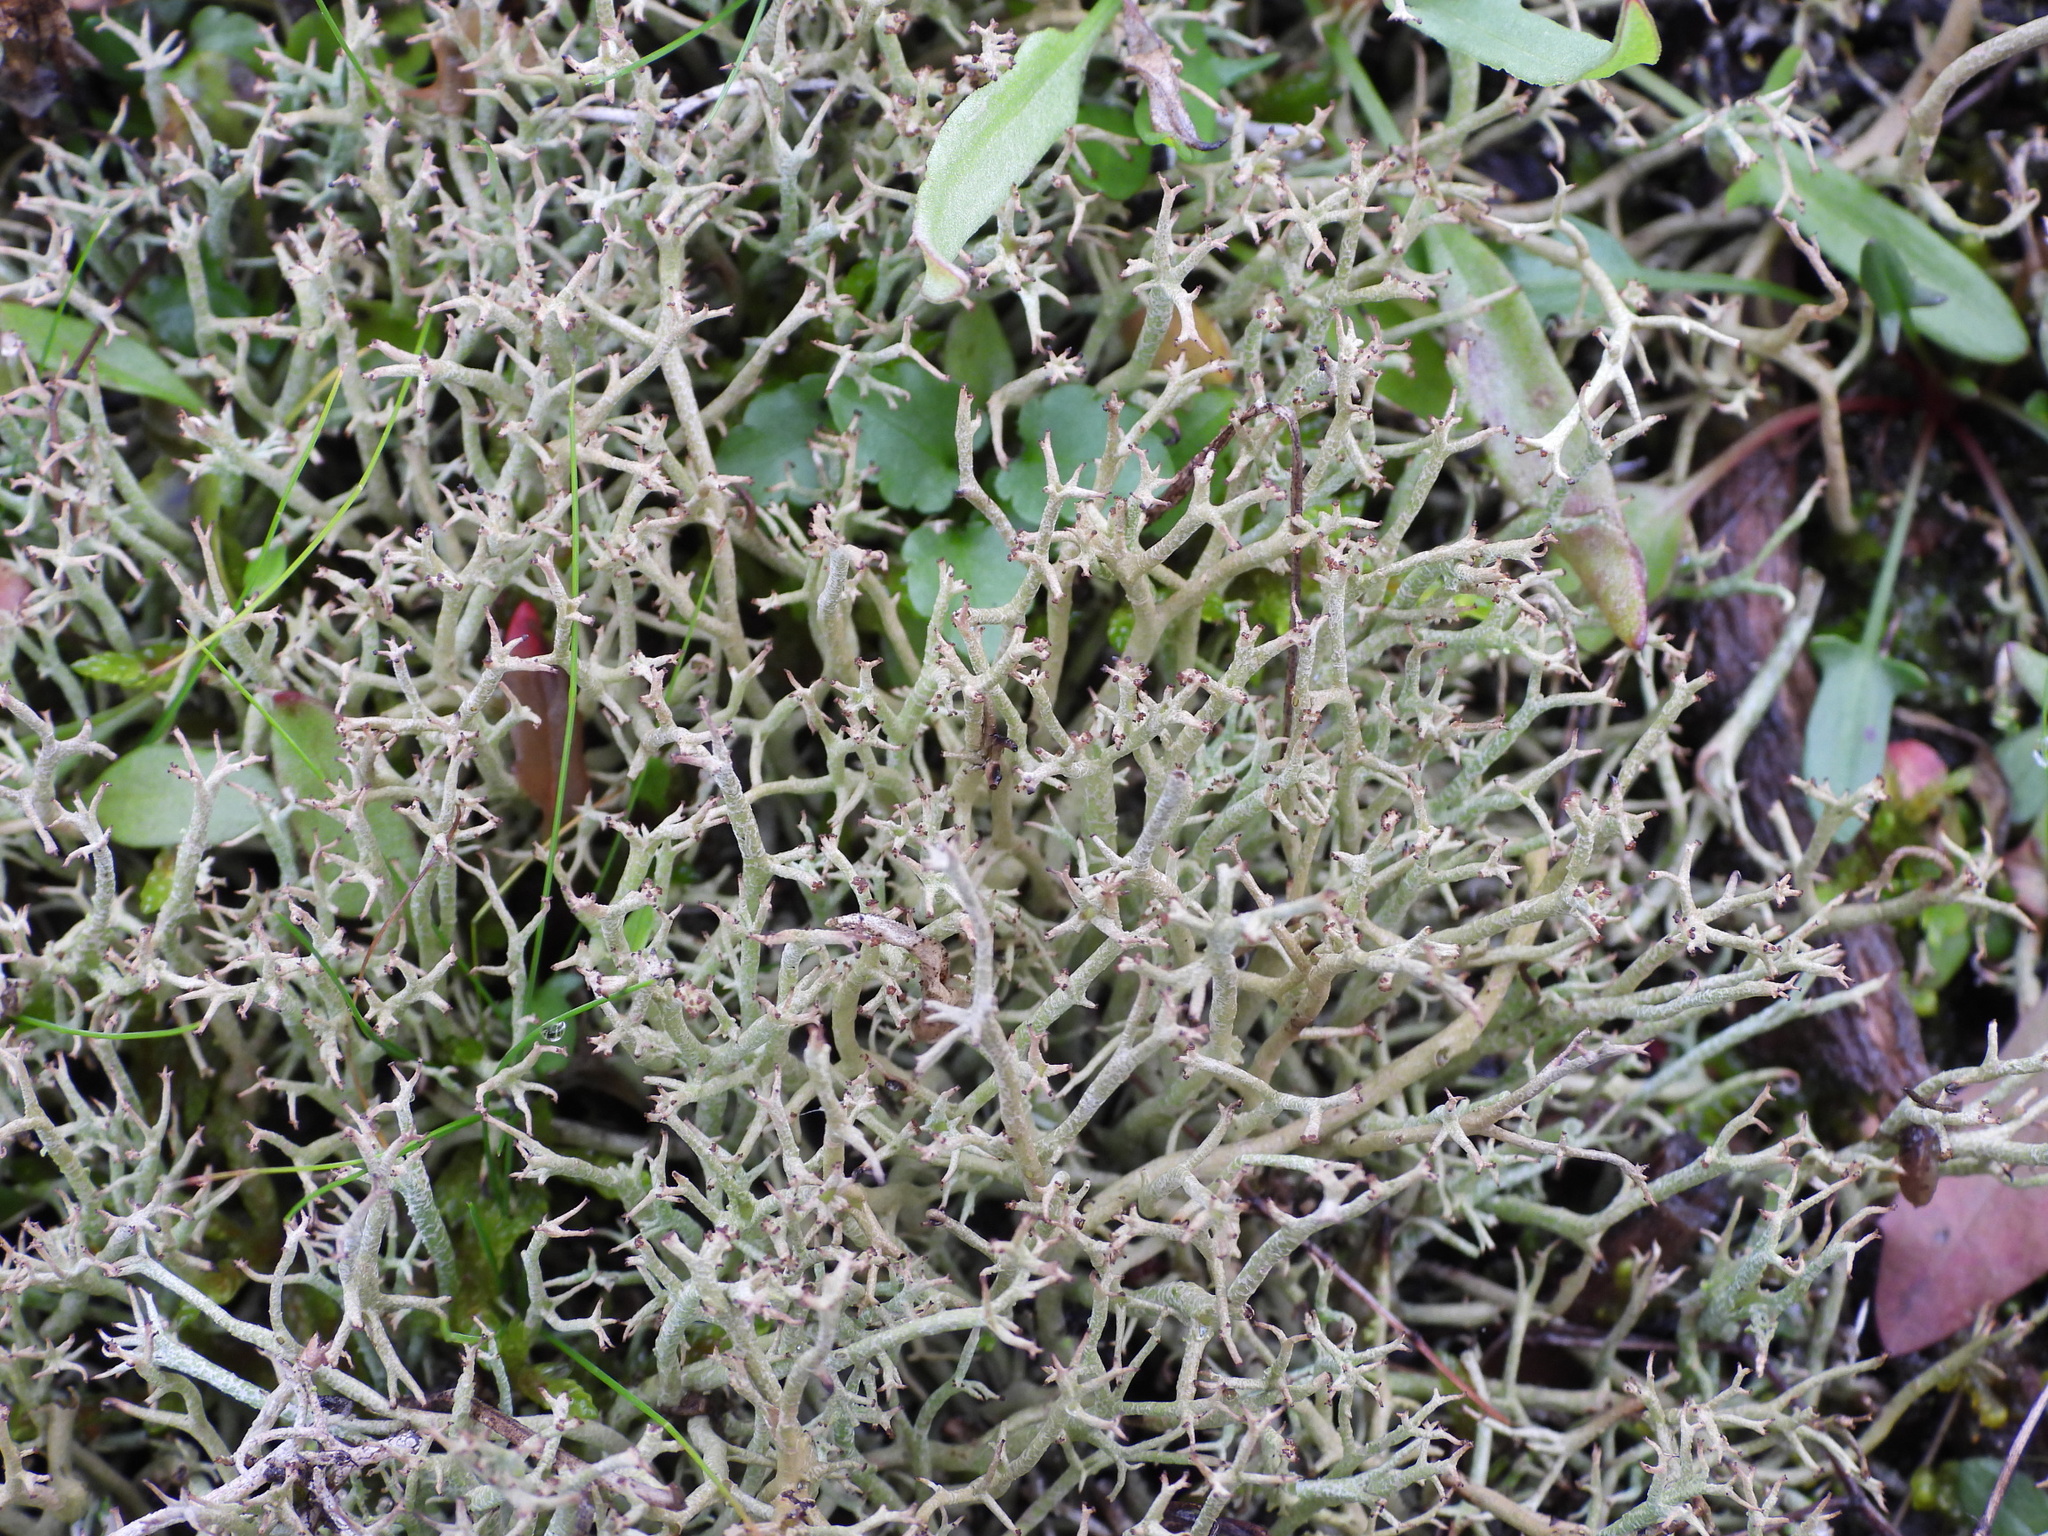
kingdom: Fungi
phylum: Ascomycota
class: Lecanoromycetes
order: Lecanorales
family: Cladoniaceae
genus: Cladonia
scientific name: Cladonia furcata
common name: Many-forked cladonia
